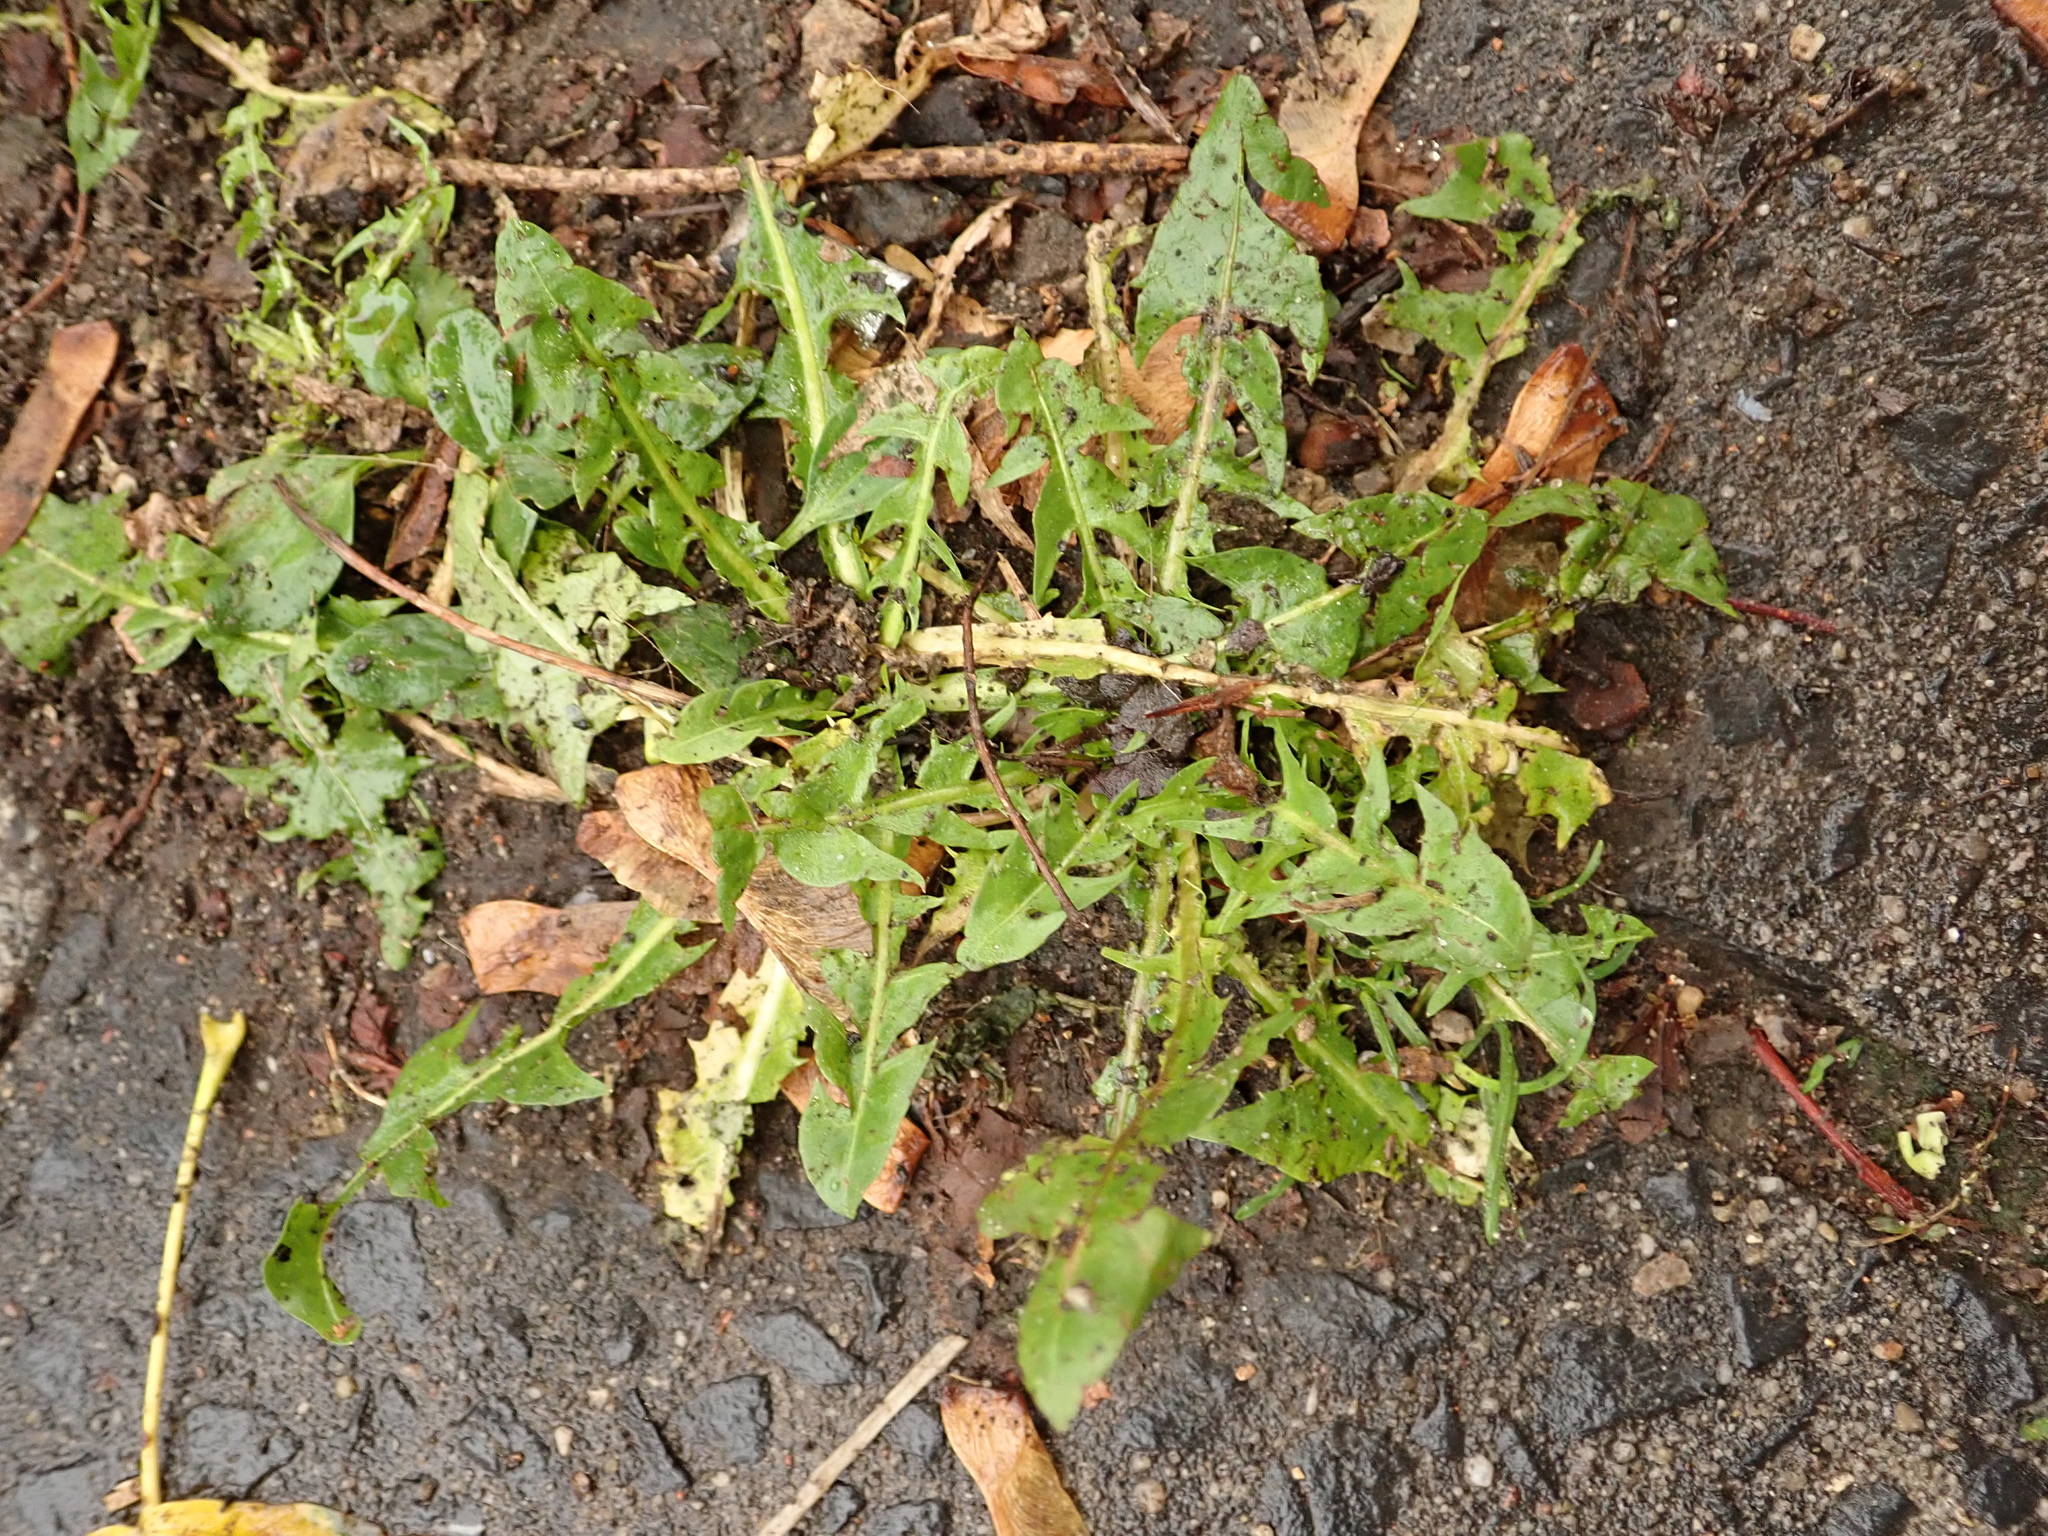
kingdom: Plantae
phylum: Tracheophyta
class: Magnoliopsida
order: Asterales
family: Asteraceae
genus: Taraxacum
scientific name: Taraxacum officinale
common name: Common dandelion
